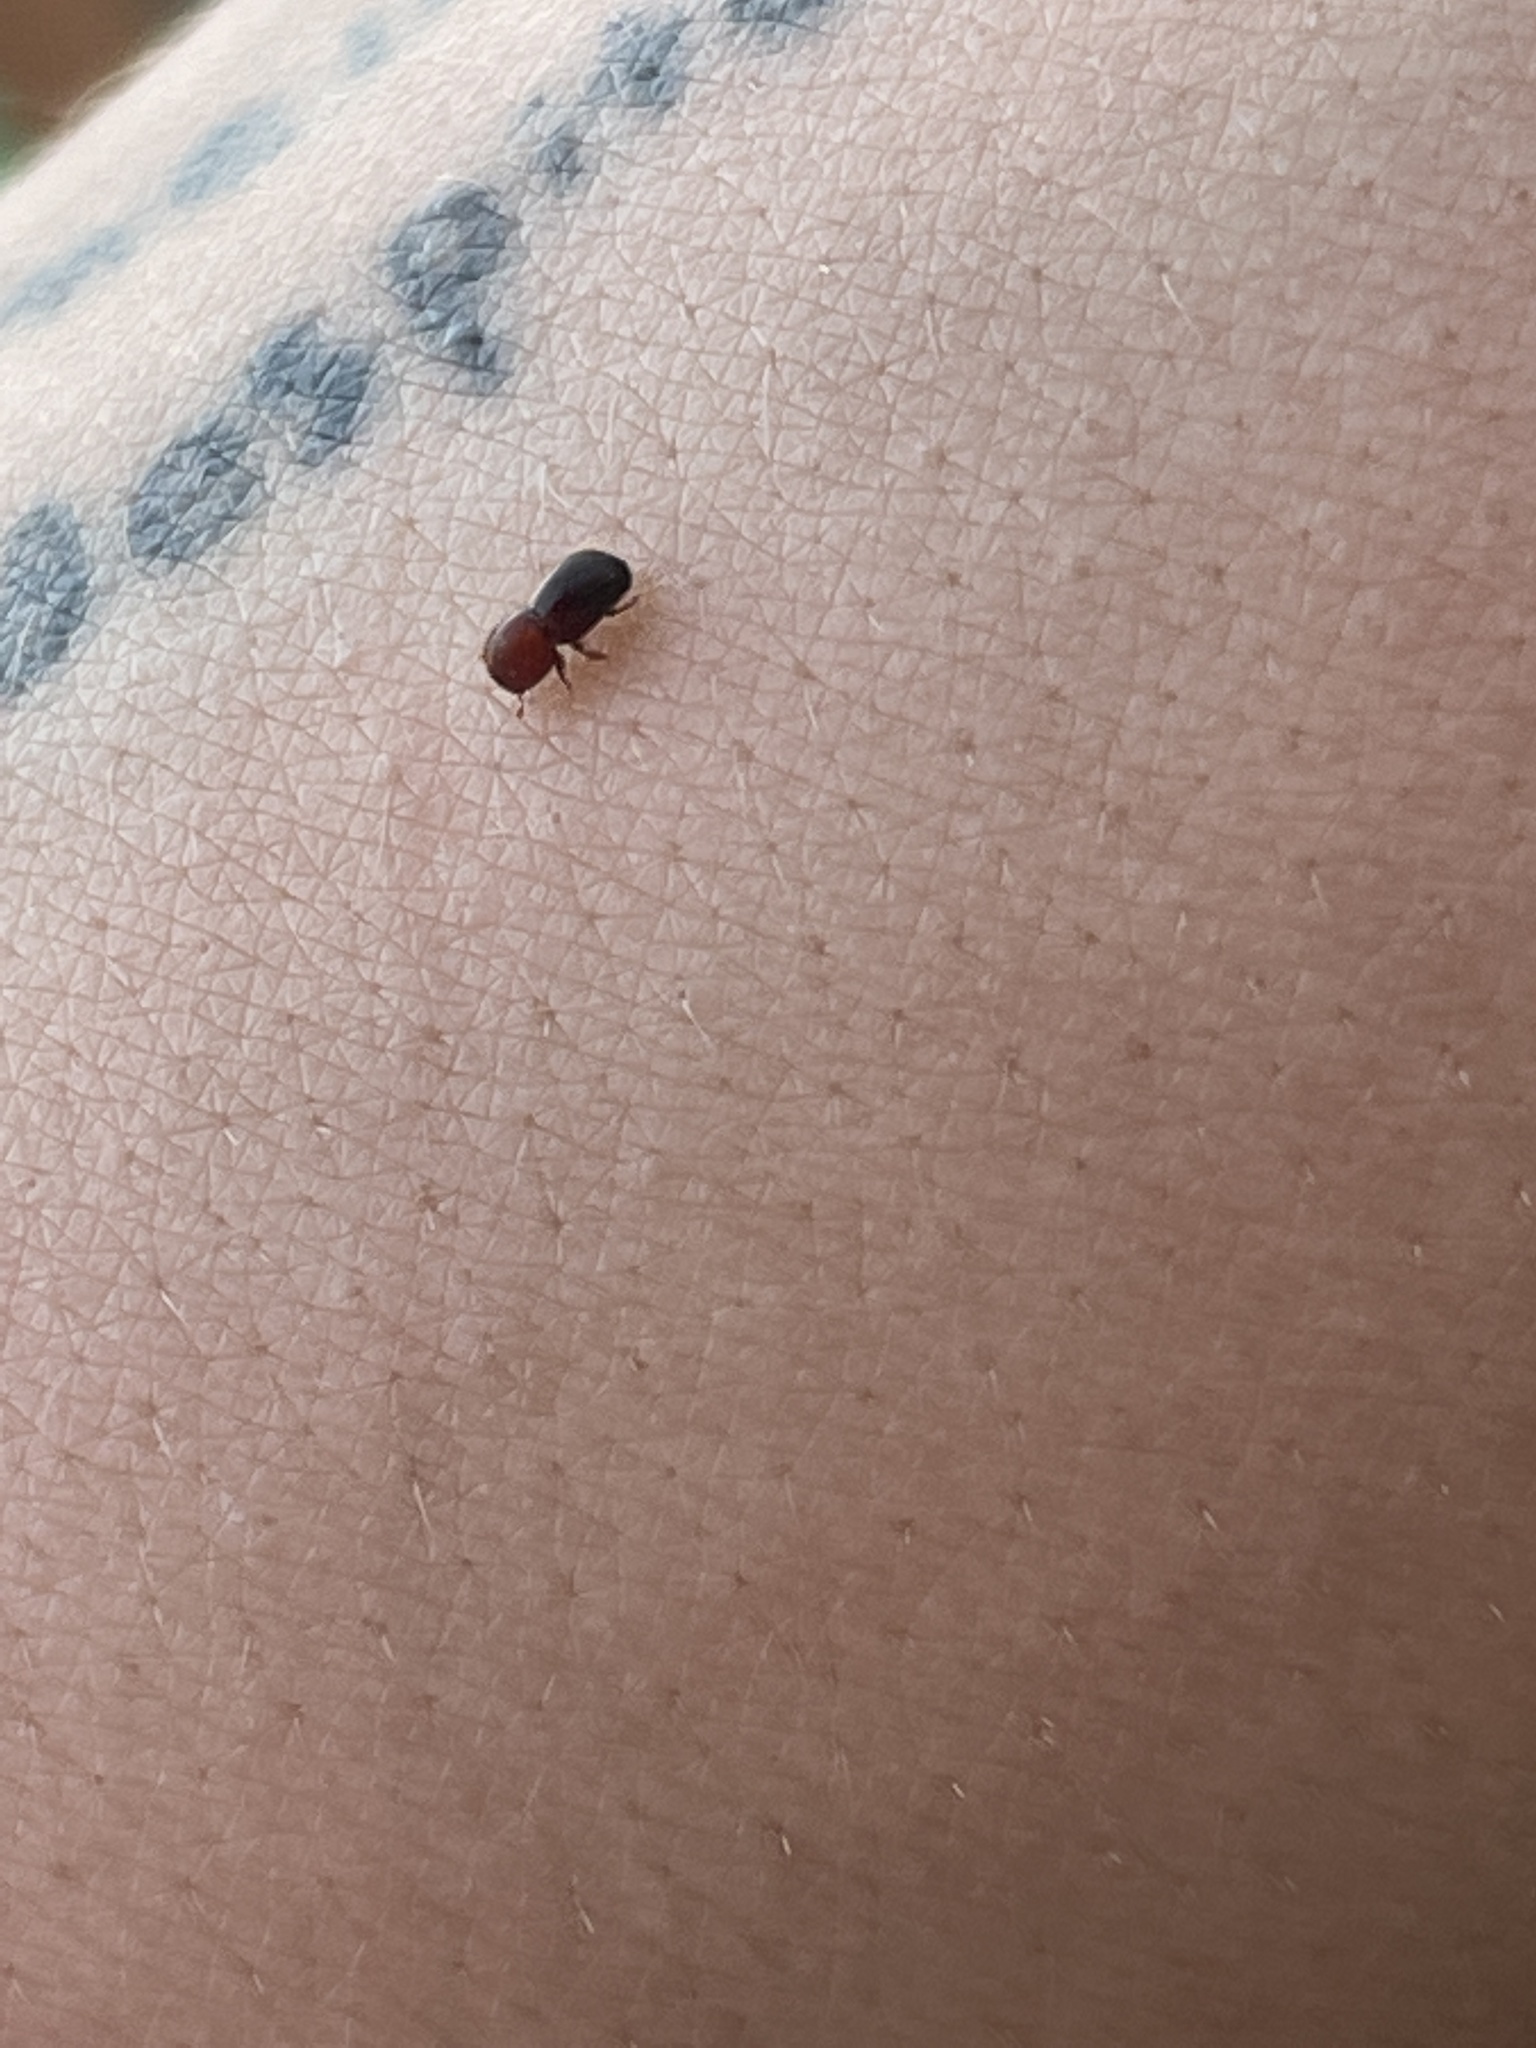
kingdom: Animalia
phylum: Arthropoda
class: Insecta
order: Coleoptera
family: Curculionidae
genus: Xylosandrus
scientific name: Xylosandrus crassiusculus
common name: Granulate ambrosia beetle
